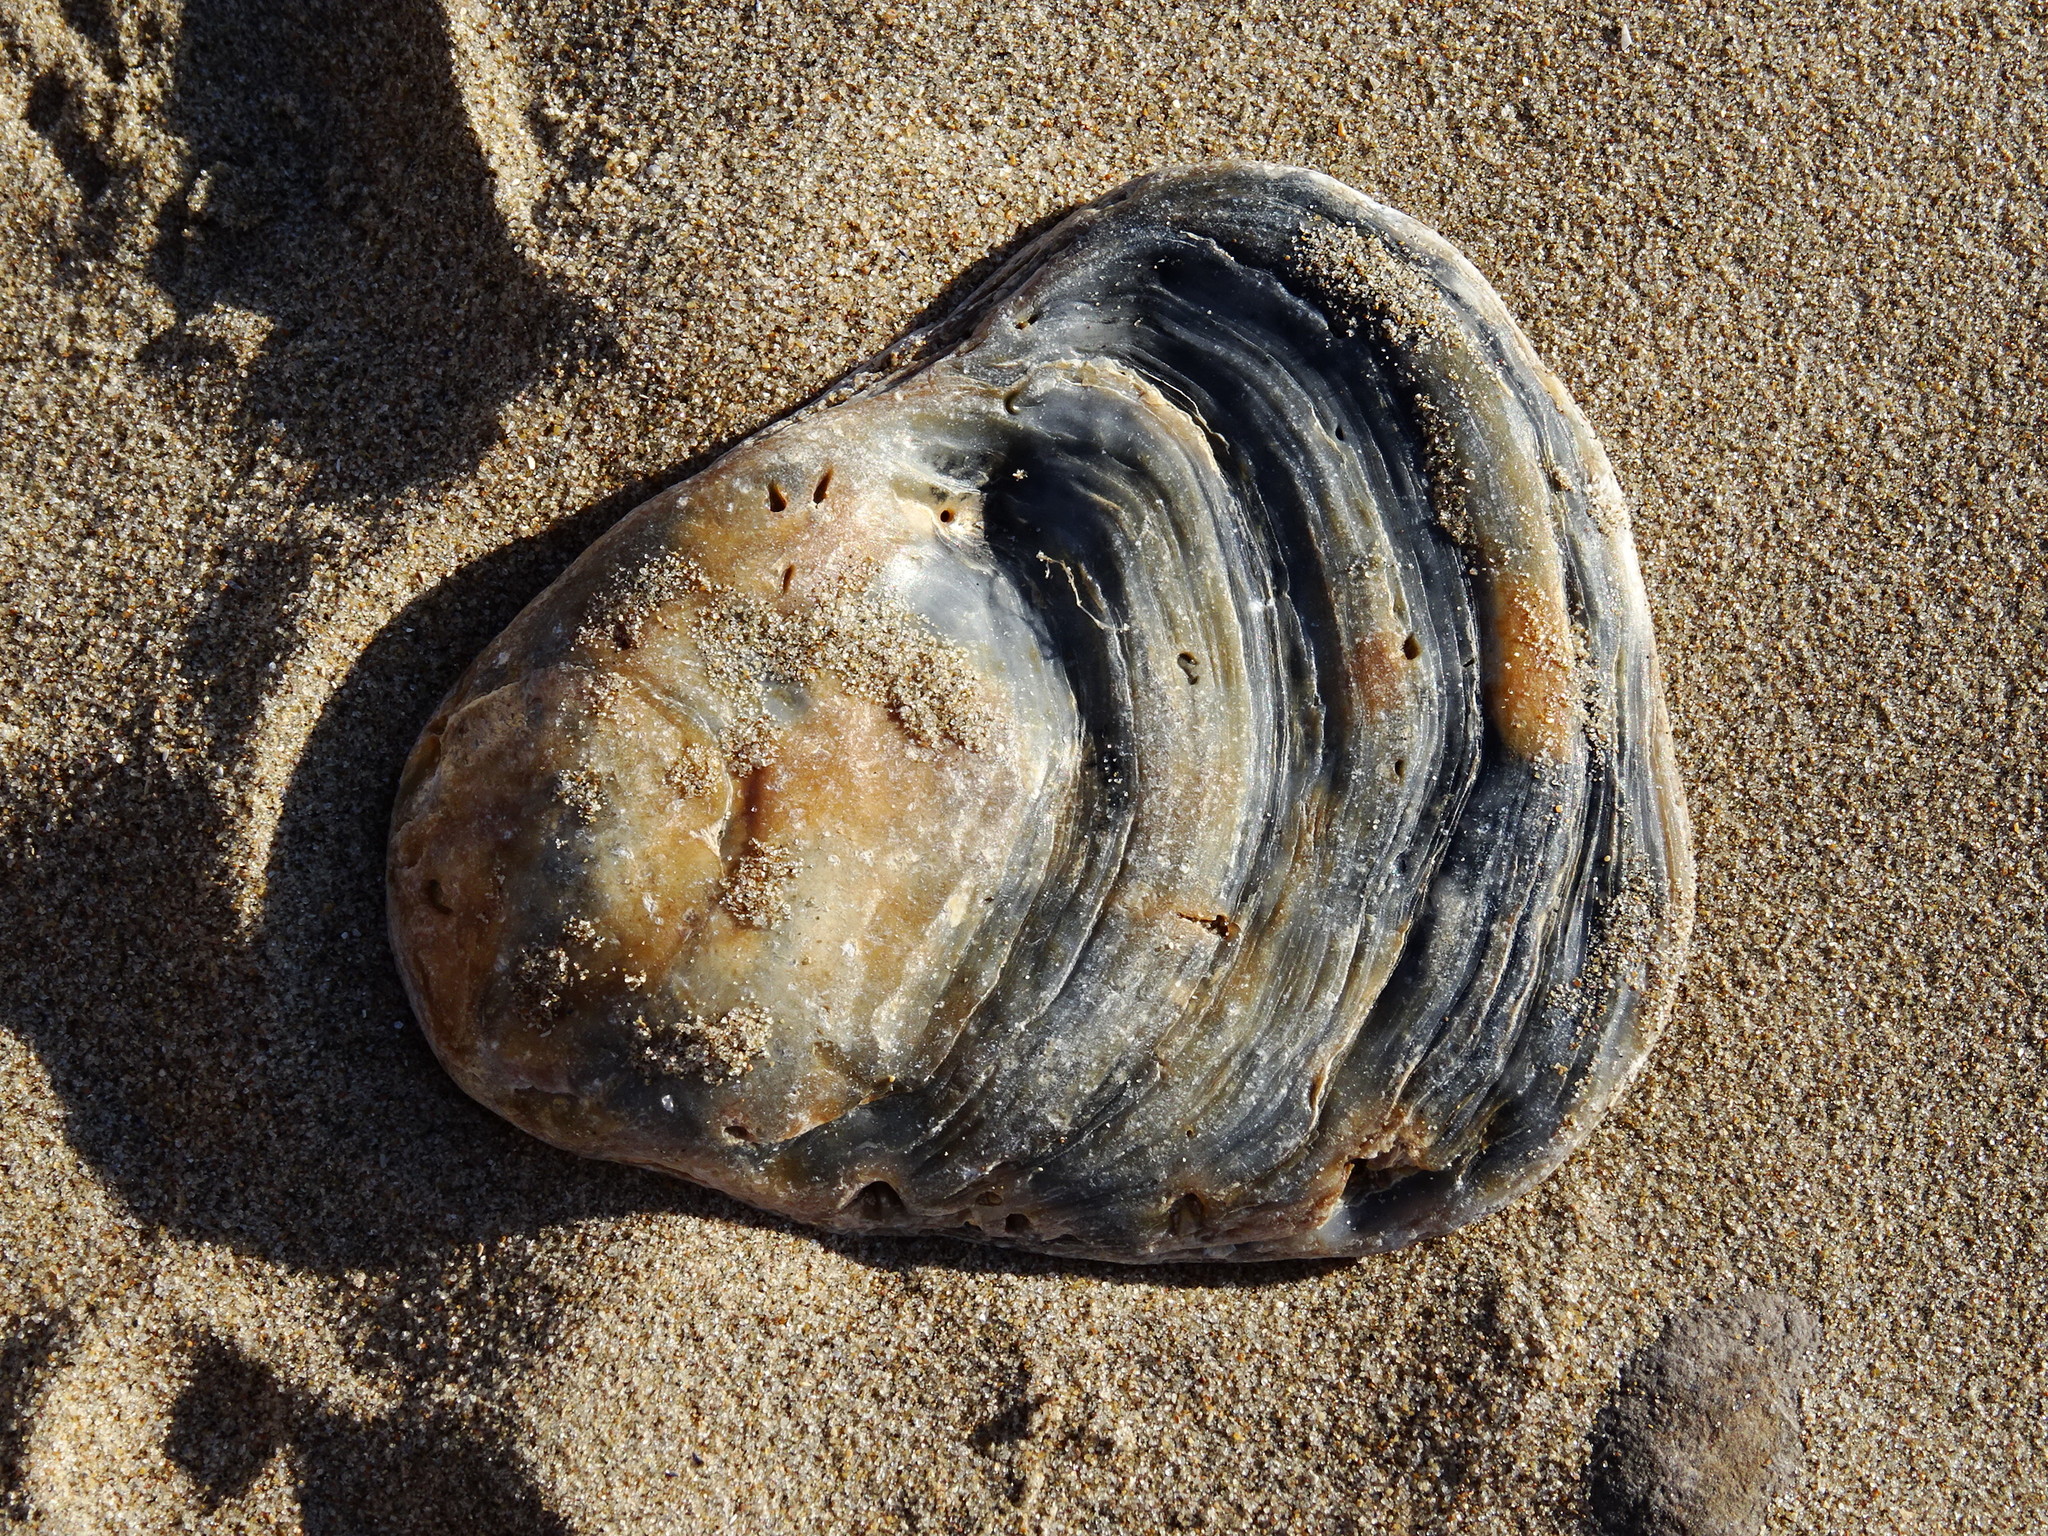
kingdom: Animalia
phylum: Mollusca
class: Bivalvia
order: Ostreida
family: Ostreidae
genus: Ostrea
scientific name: Ostrea edulis
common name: Flat oyster
